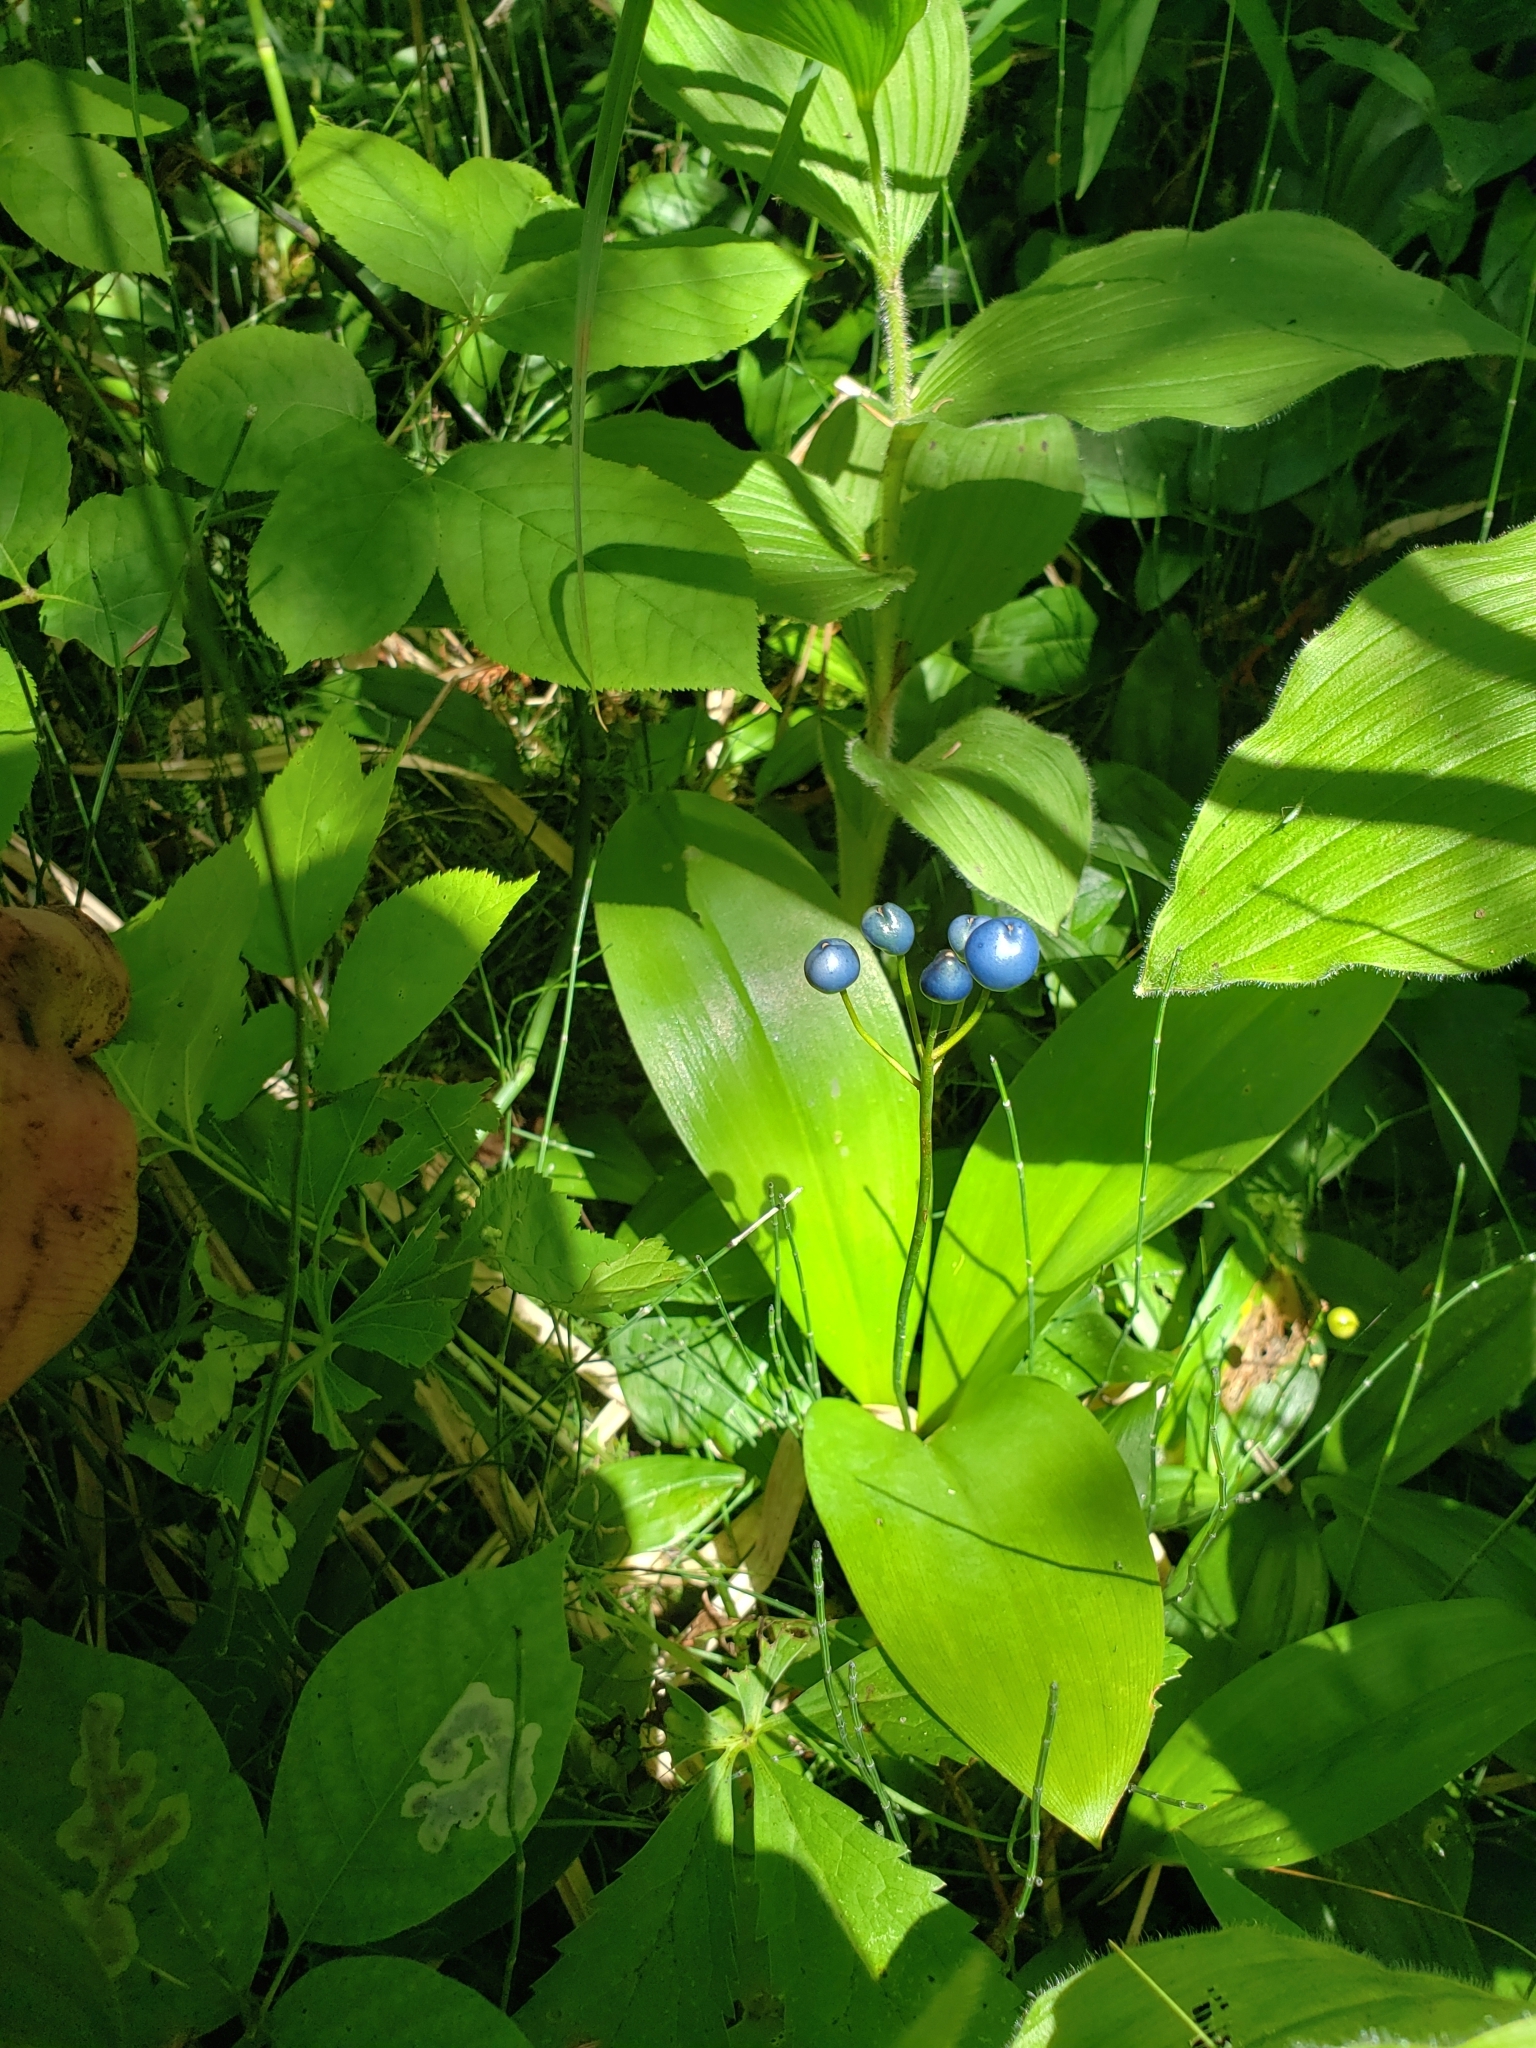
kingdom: Plantae
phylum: Tracheophyta
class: Liliopsida
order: Liliales
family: Liliaceae
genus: Clintonia
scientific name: Clintonia borealis
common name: Yellow clintonia
